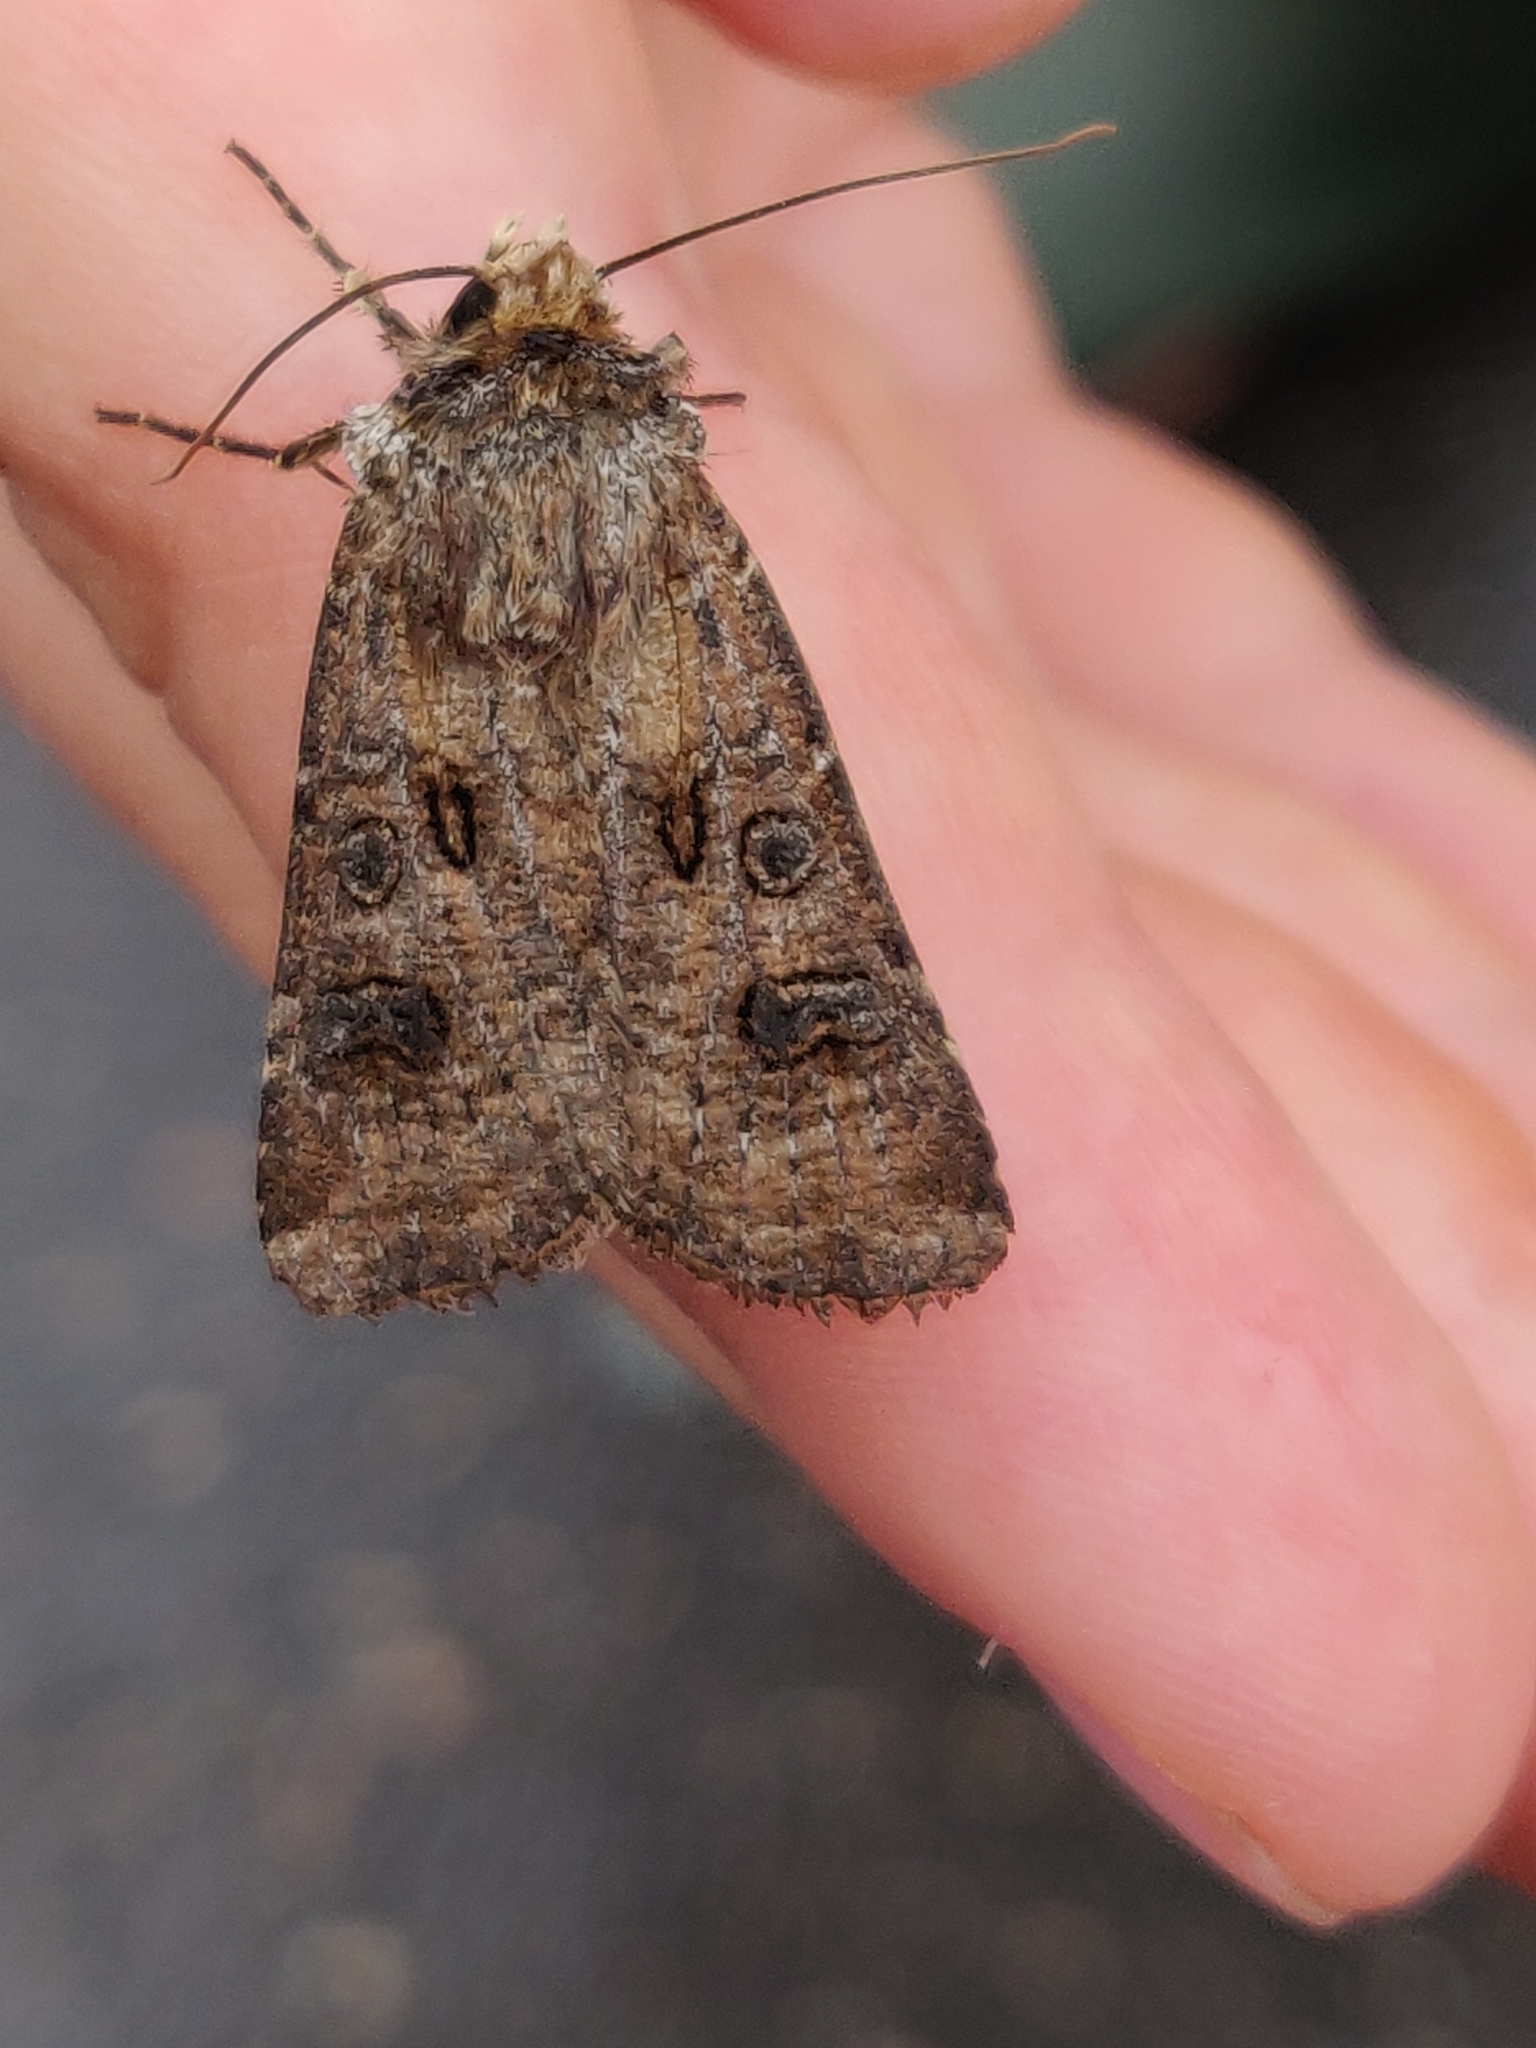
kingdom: Animalia
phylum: Arthropoda
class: Insecta
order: Lepidoptera
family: Noctuidae
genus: Agrotis
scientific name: Agrotis clavis
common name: Heart and club
